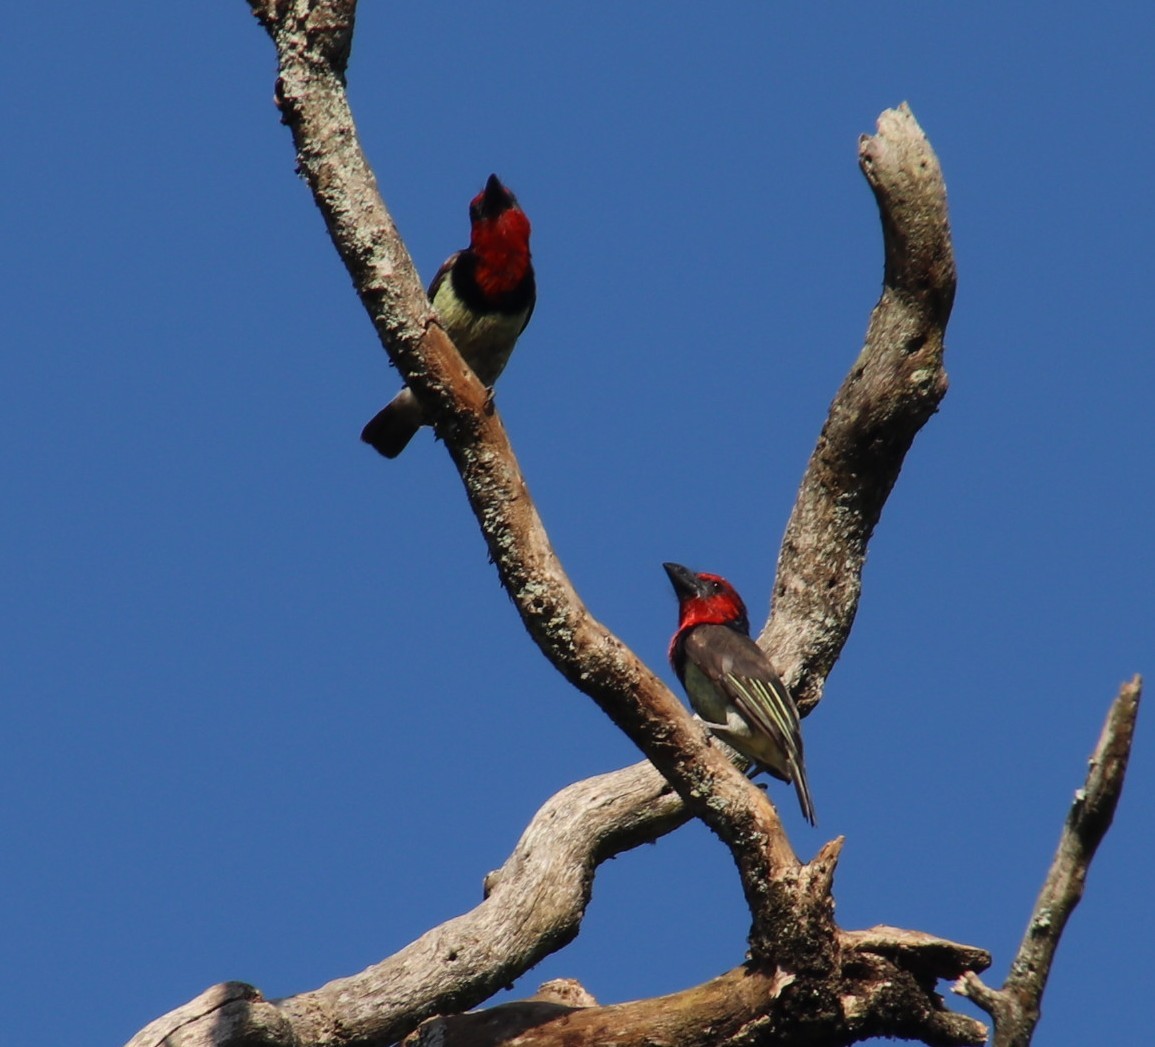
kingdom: Animalia
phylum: Chordata
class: Aves
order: Piciformes
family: Lybiidae
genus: Lybius
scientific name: Lybius torquatus
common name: Black-collared barbet
